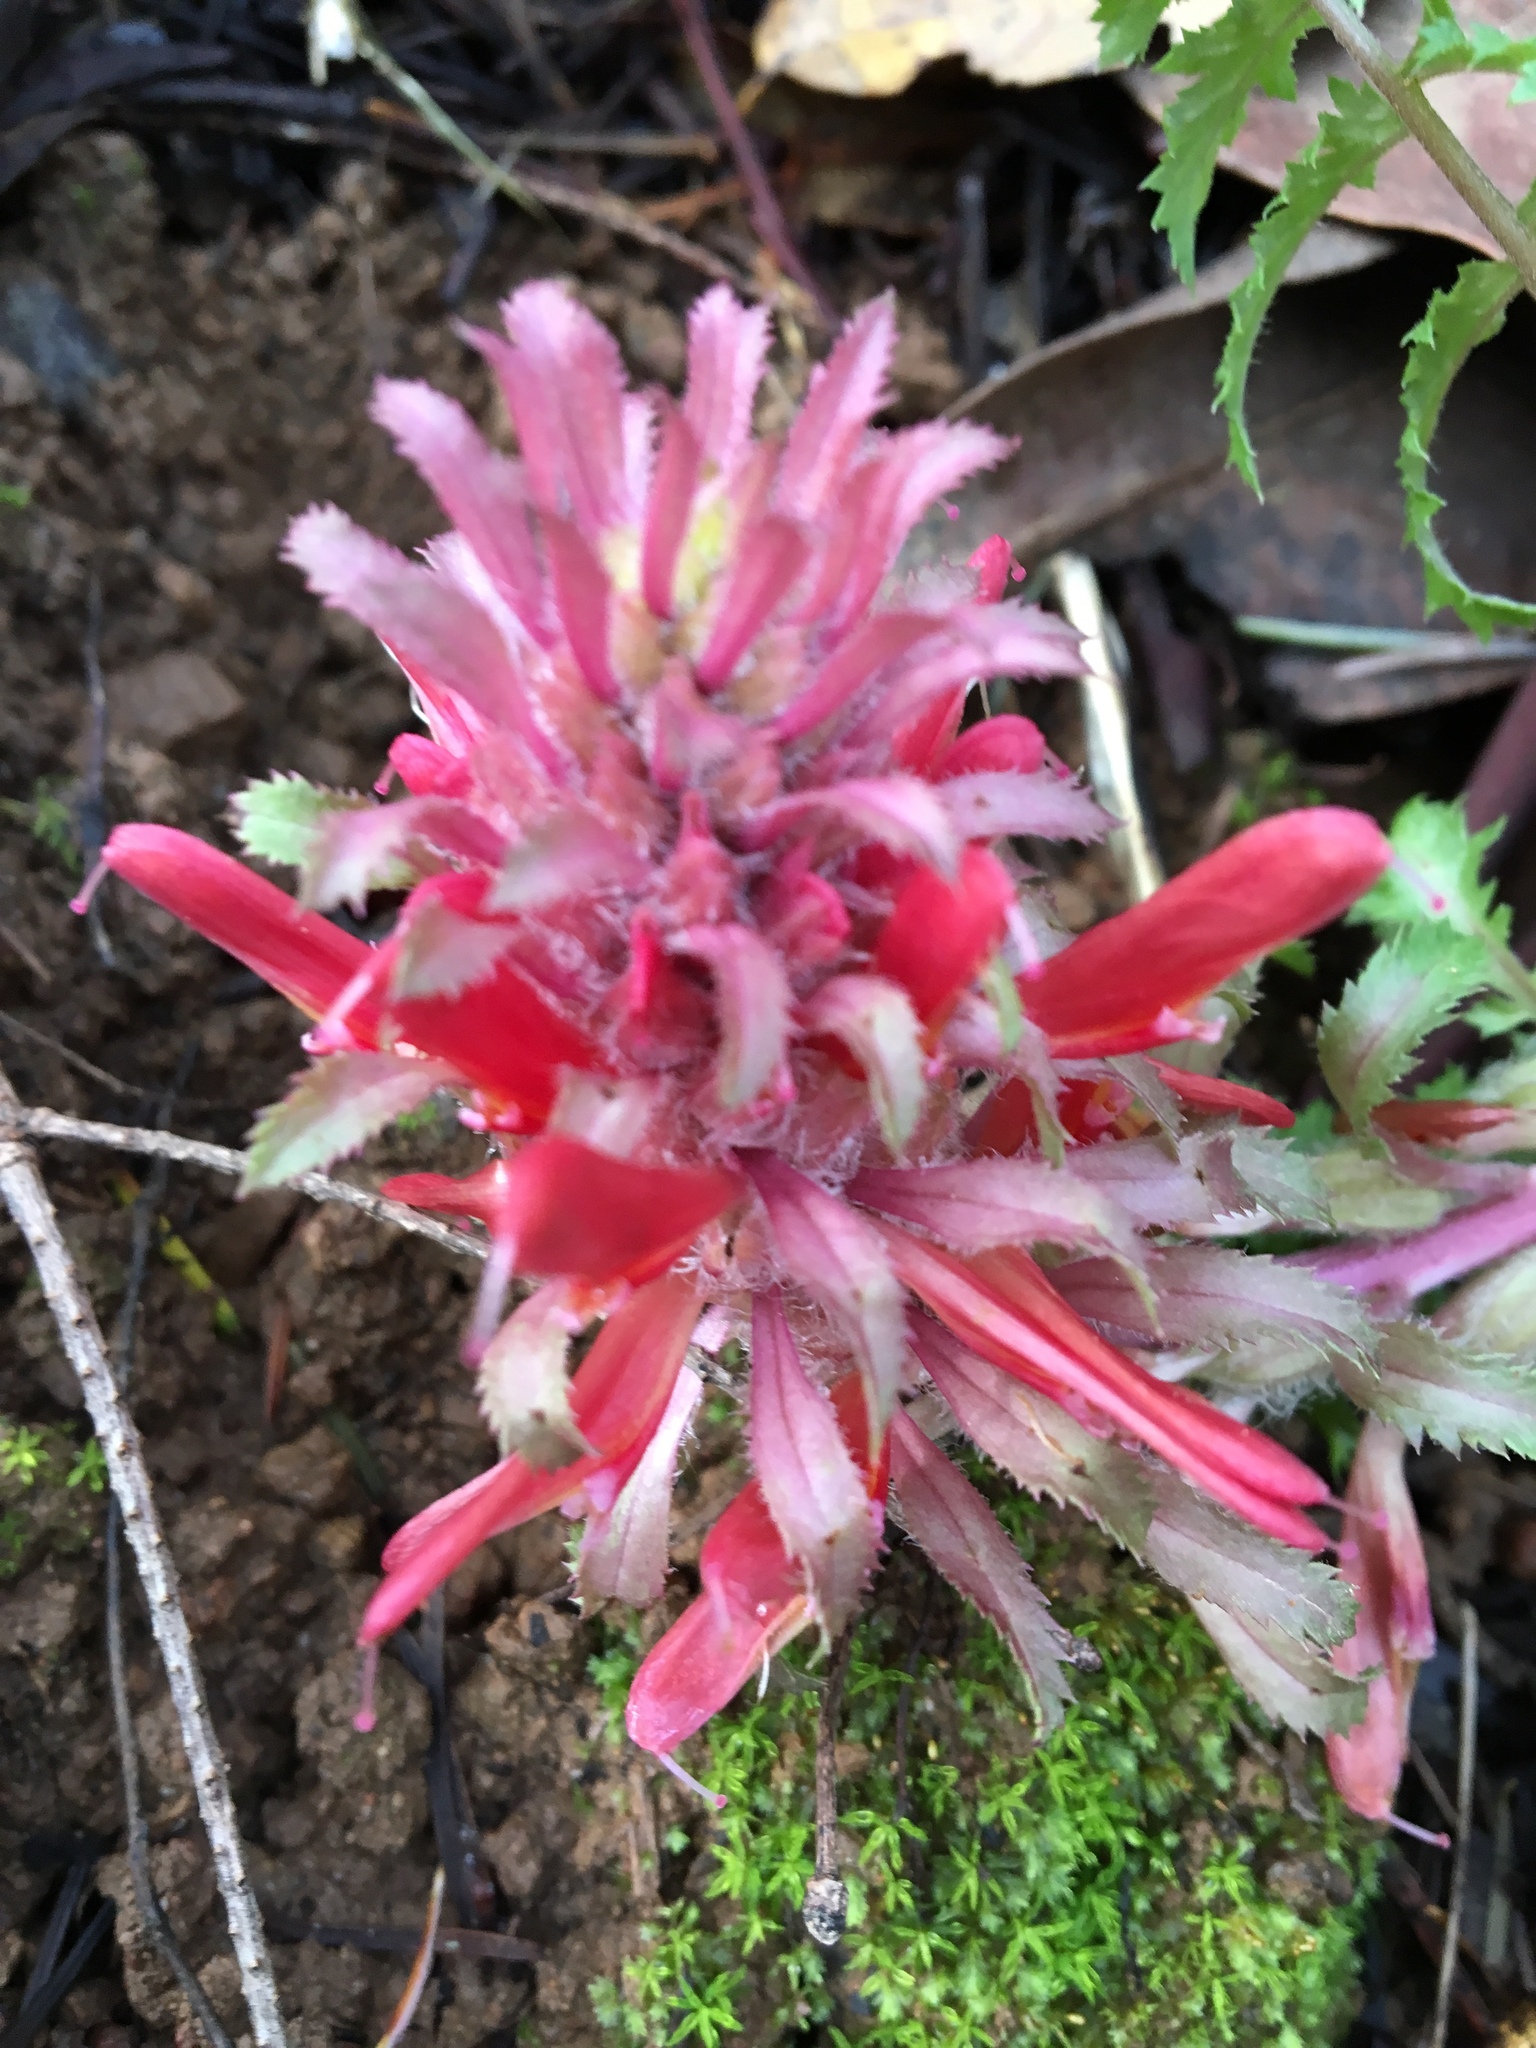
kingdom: Plantae
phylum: Tracheophyta
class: Magnoliopsida
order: Lamiales
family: Orobanchaceae
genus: Pedicularis
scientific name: Pedicularis densiflora
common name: Indian warrior
